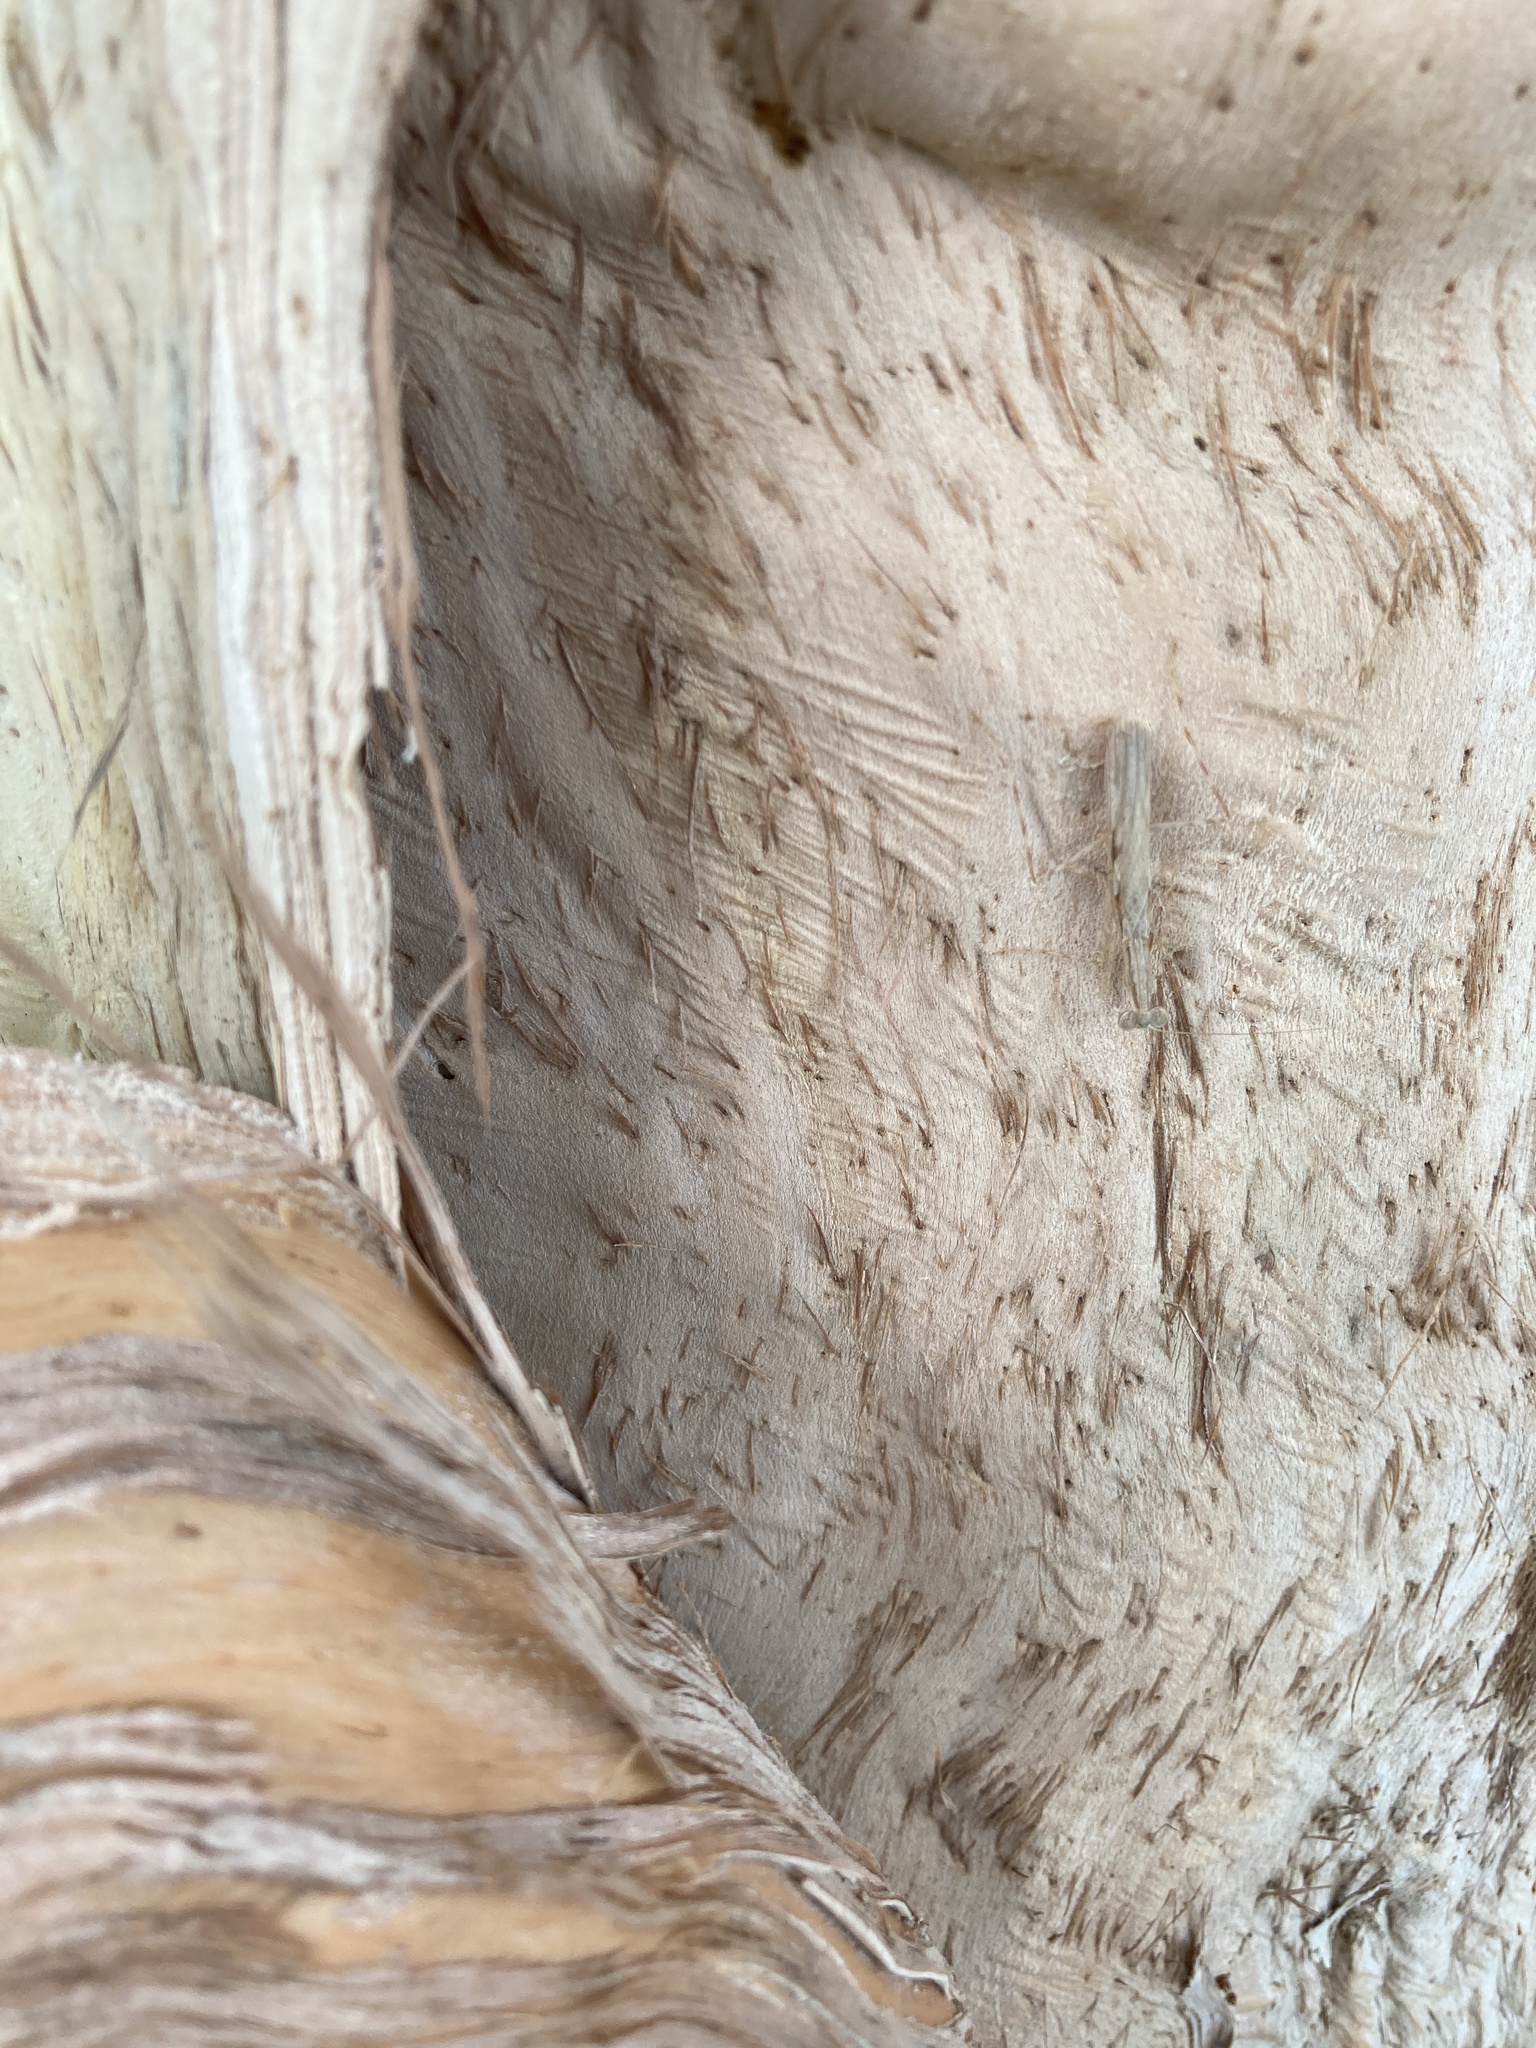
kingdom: Animalia
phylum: Arthropoda
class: Insecta
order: Mantodea
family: Nanomantidae
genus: Ima
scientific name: Ima fusca
